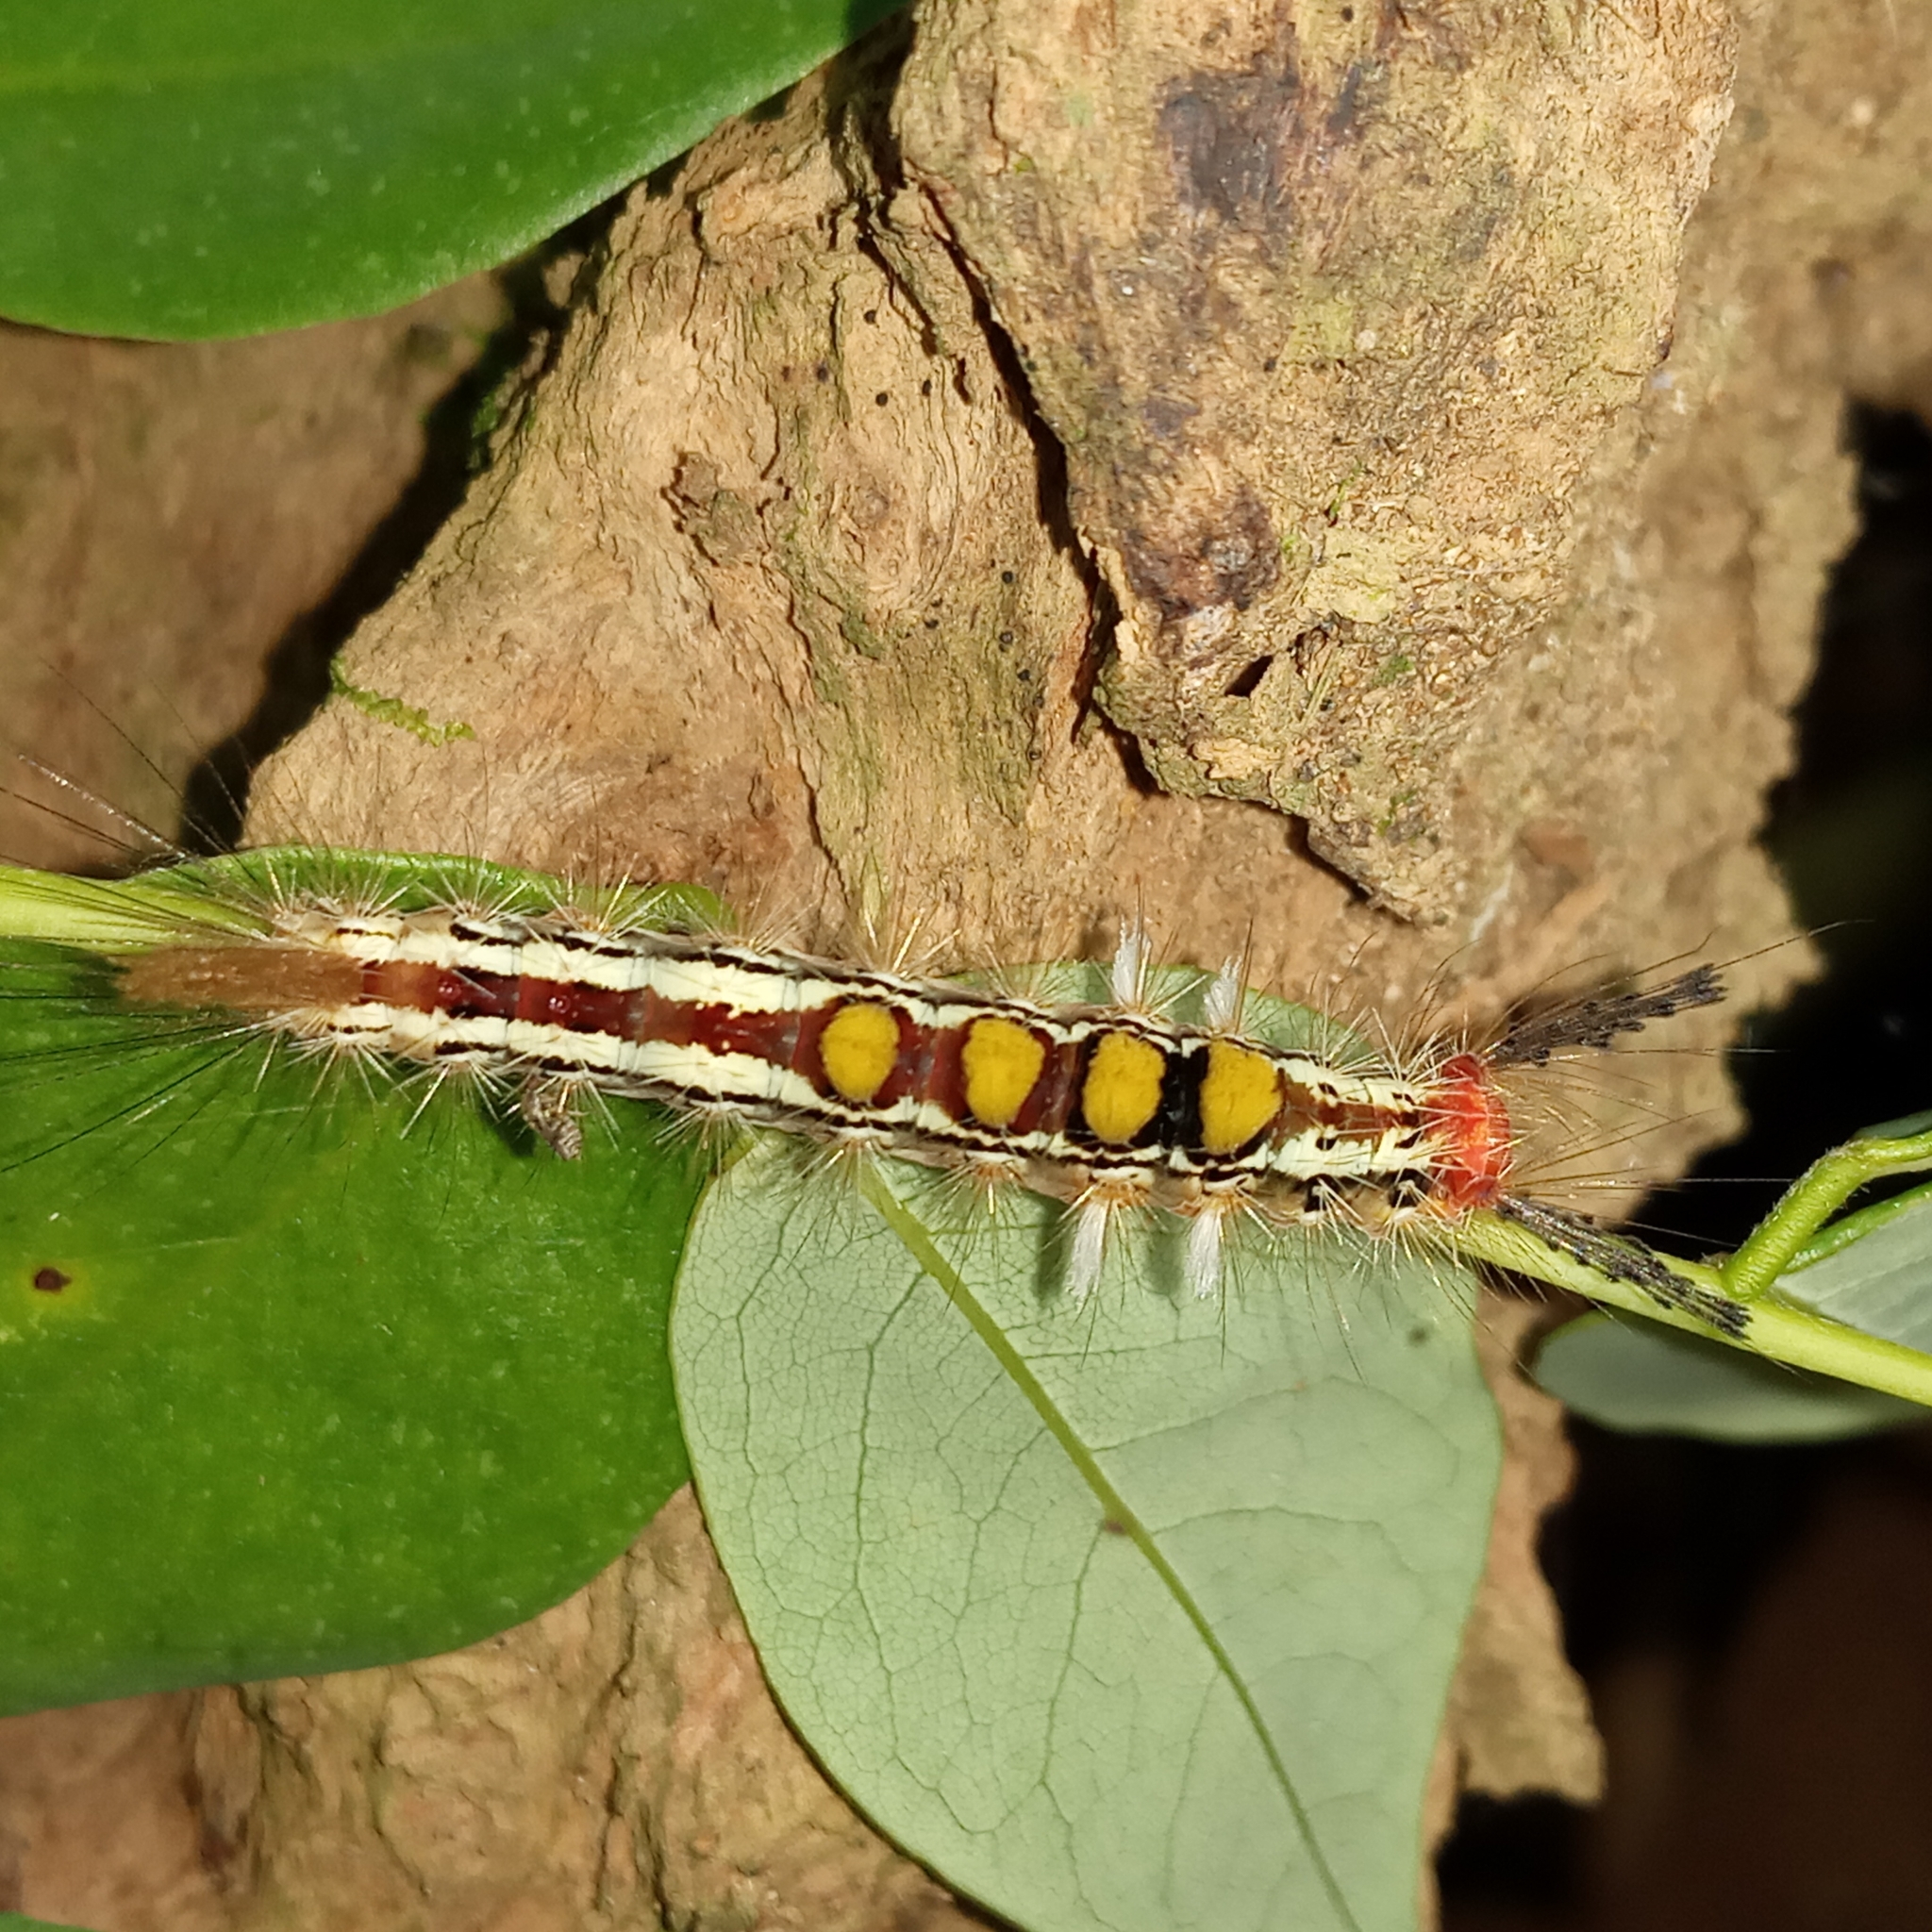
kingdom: Animalia
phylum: Arthropoda
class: Insecta
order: Lepidoptera
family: Erebidae
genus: Orgyia
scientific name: Orgyia postica
